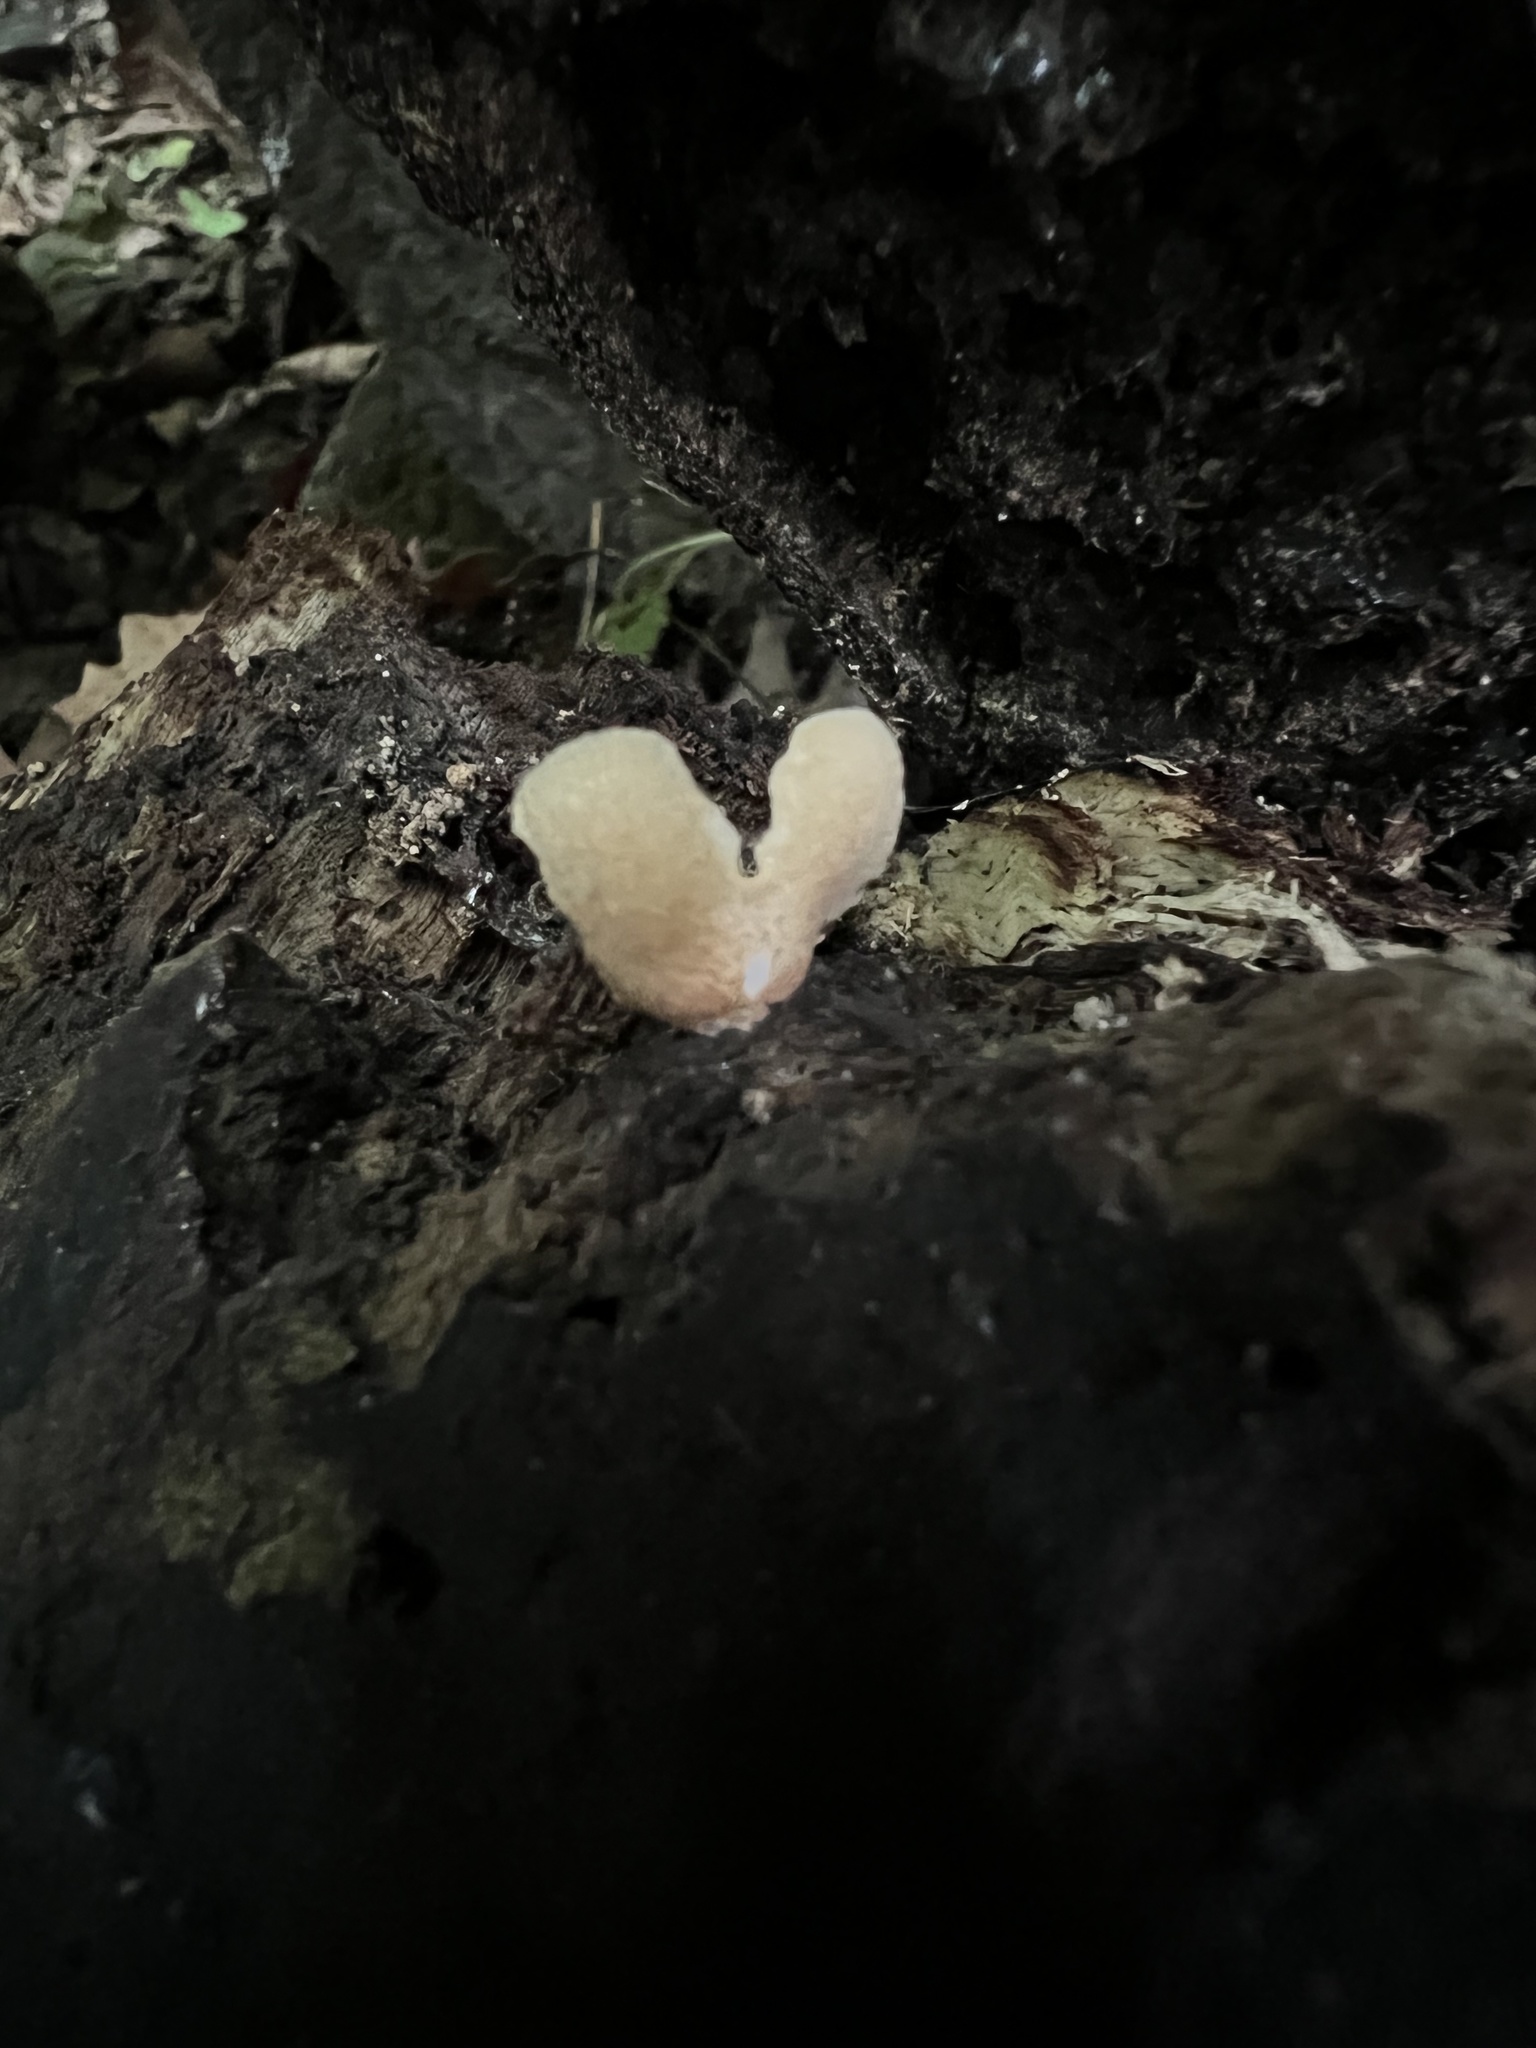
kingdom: Fungi
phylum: Basidiomycota
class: Agaricomycetes
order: Agaricales
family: Crepidotaceae
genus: Crepidotus
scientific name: Crepidotus crocophyllus
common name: Saffron oysterling
